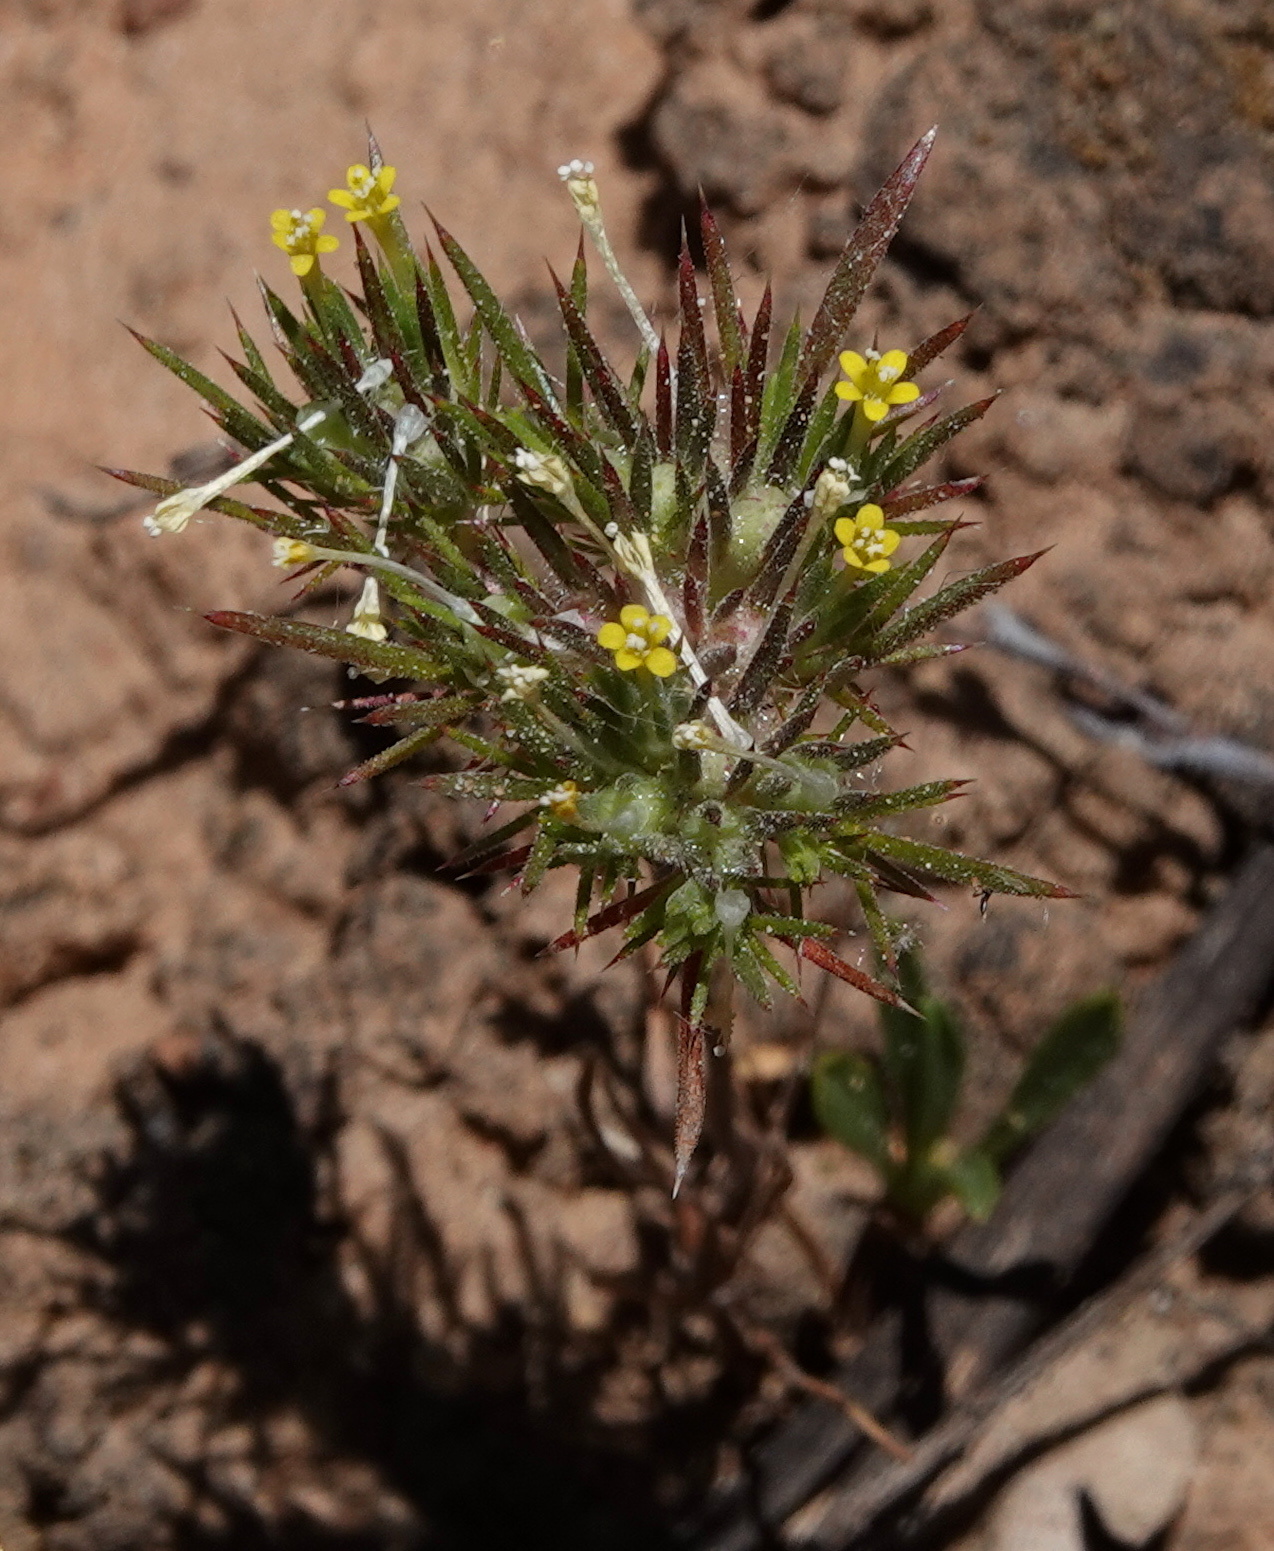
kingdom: Plantae
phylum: Tracheophyta
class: Magnoliopsida
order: Ericales
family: Polemoniaceae
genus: Navarretia
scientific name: Navarretia breweri
